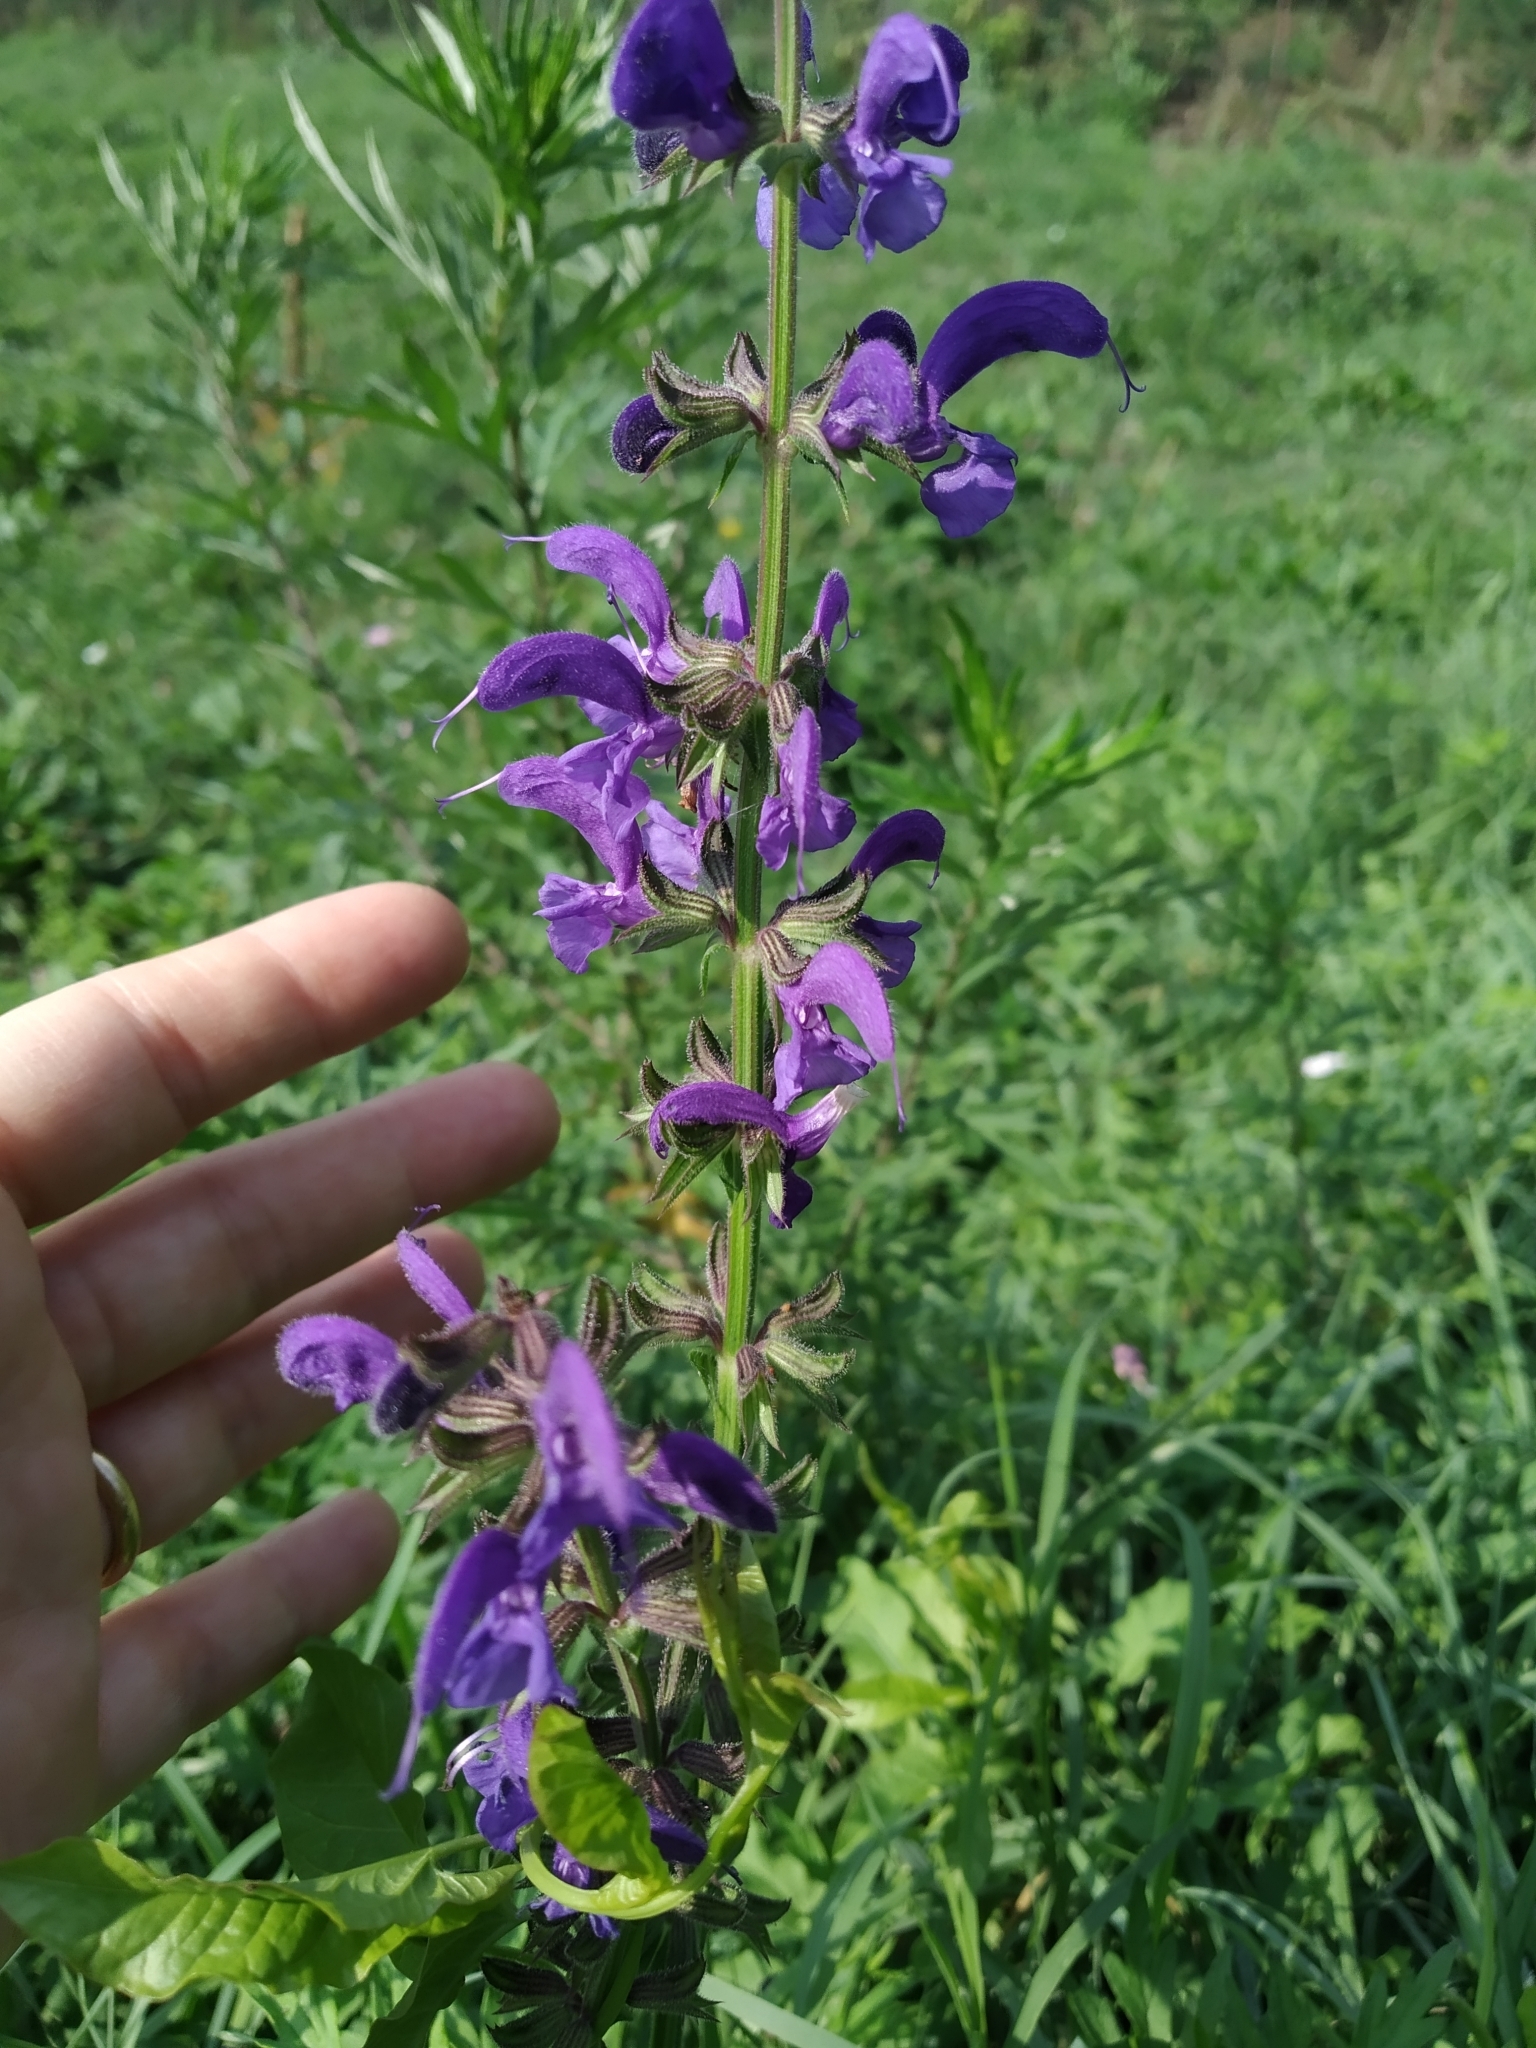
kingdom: Plantae
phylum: Tracheophyta
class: Magnoliopsida
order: Lamiales
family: Lamiaceae
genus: Salvia
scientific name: Salvia pratensis
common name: Meadow sage
